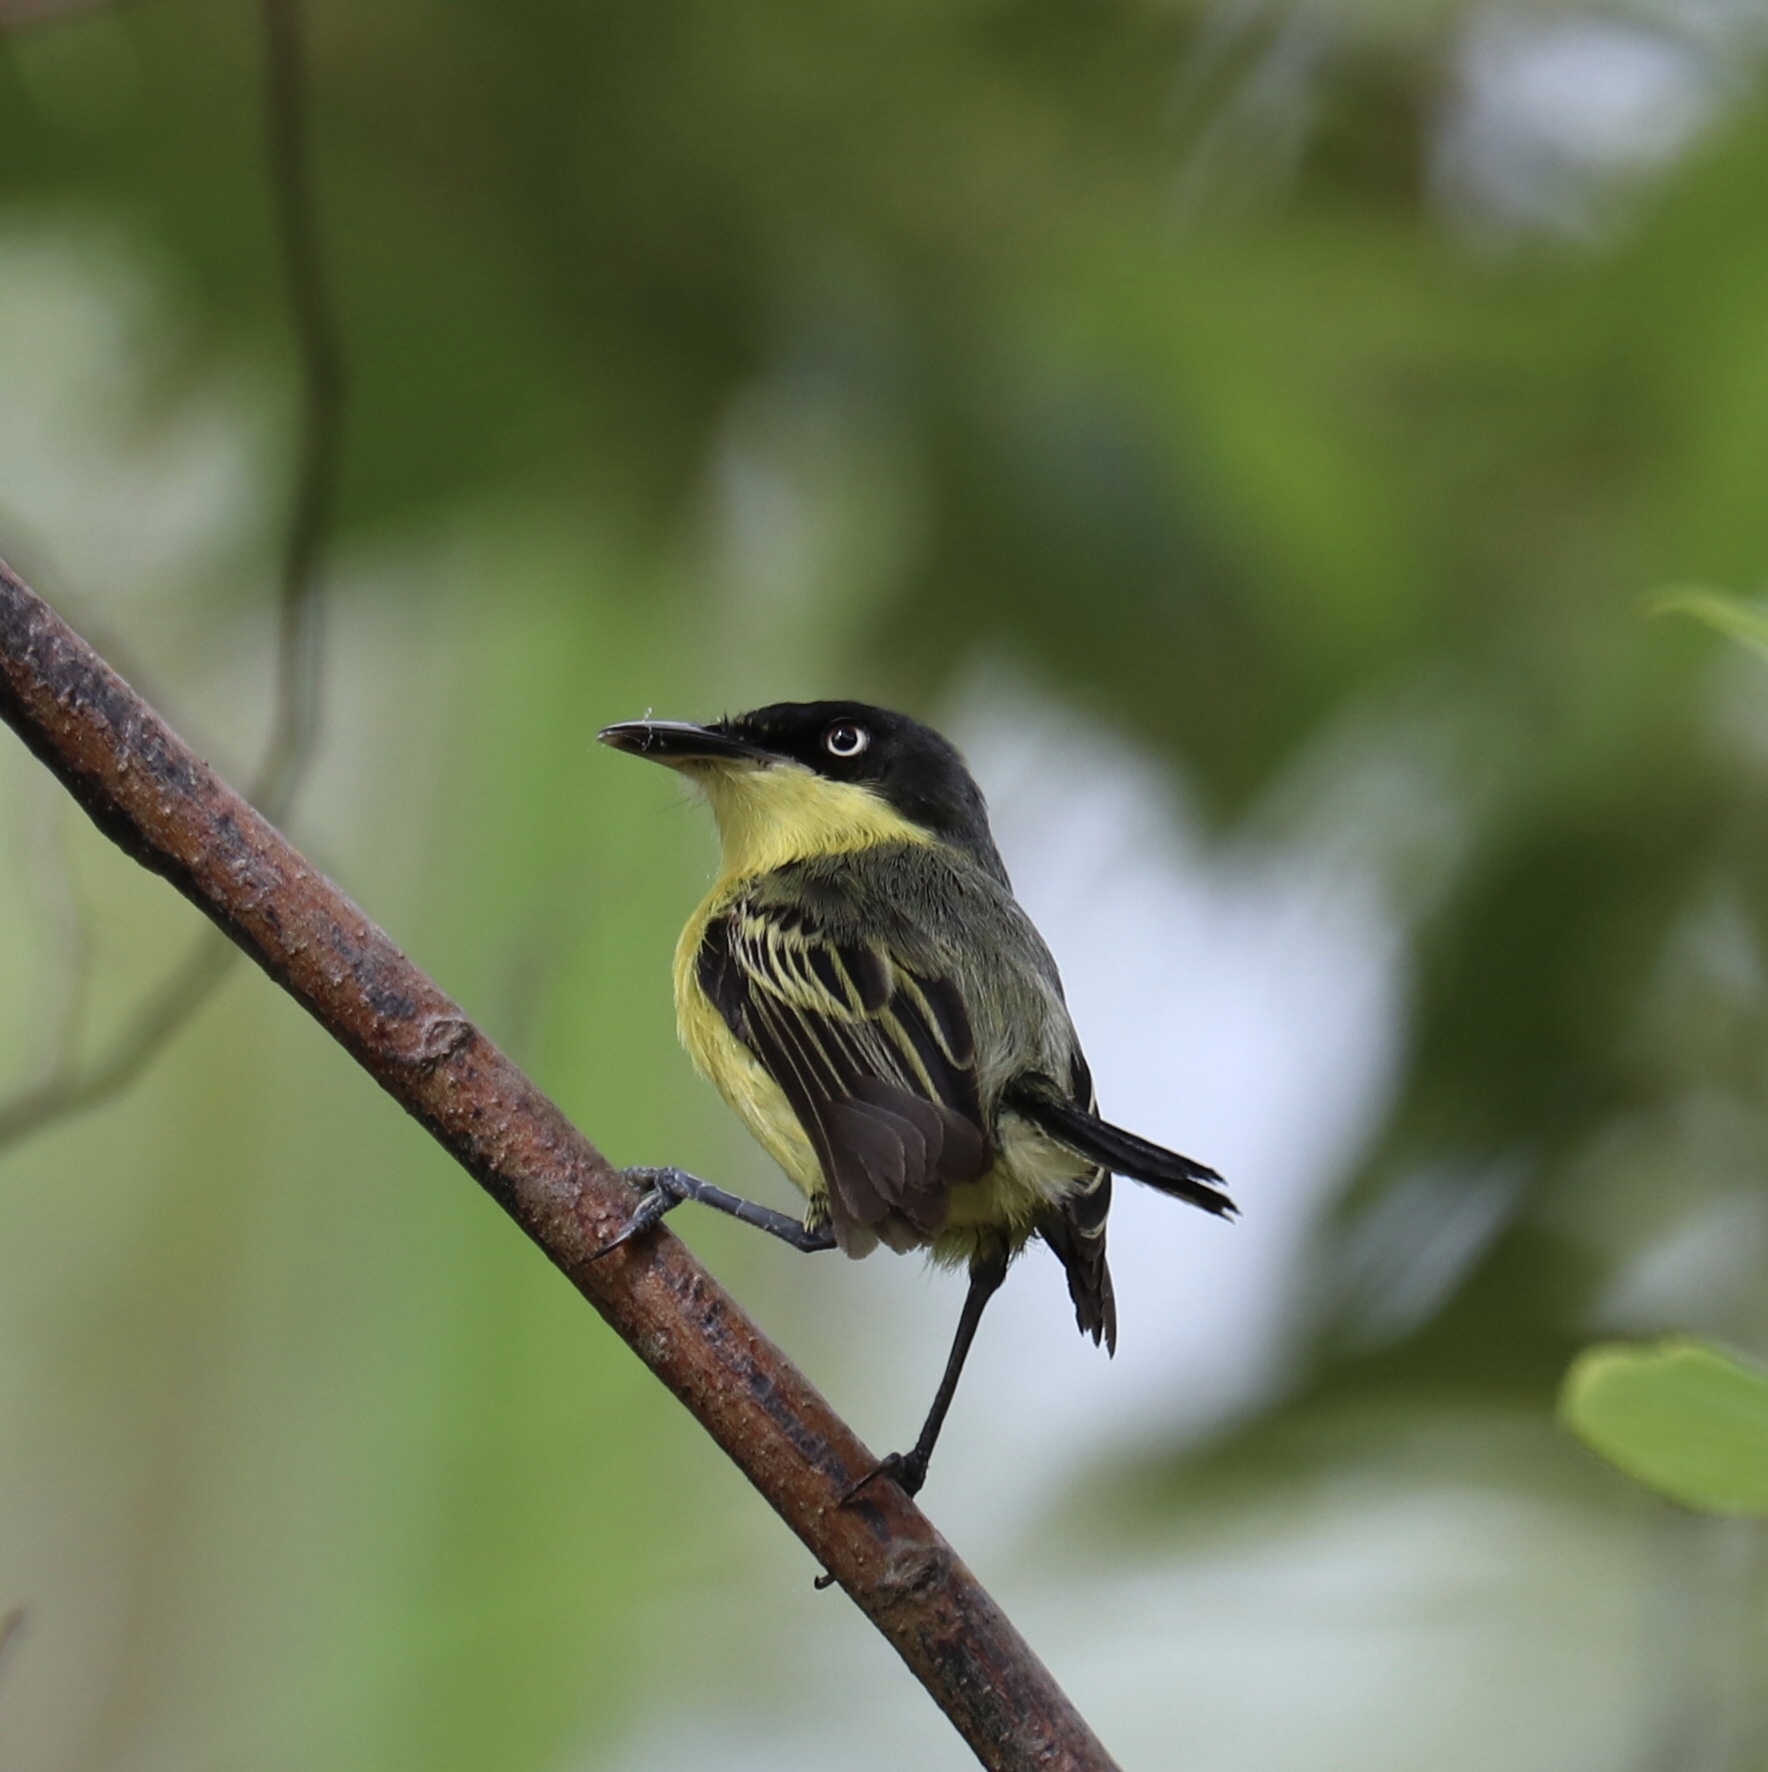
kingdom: Animalia
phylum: Chordata
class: Aves
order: Passeriformes
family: Tyrannidae
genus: Todirostrum
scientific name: Todirostrum cinereum
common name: Common tody-flycatcher
